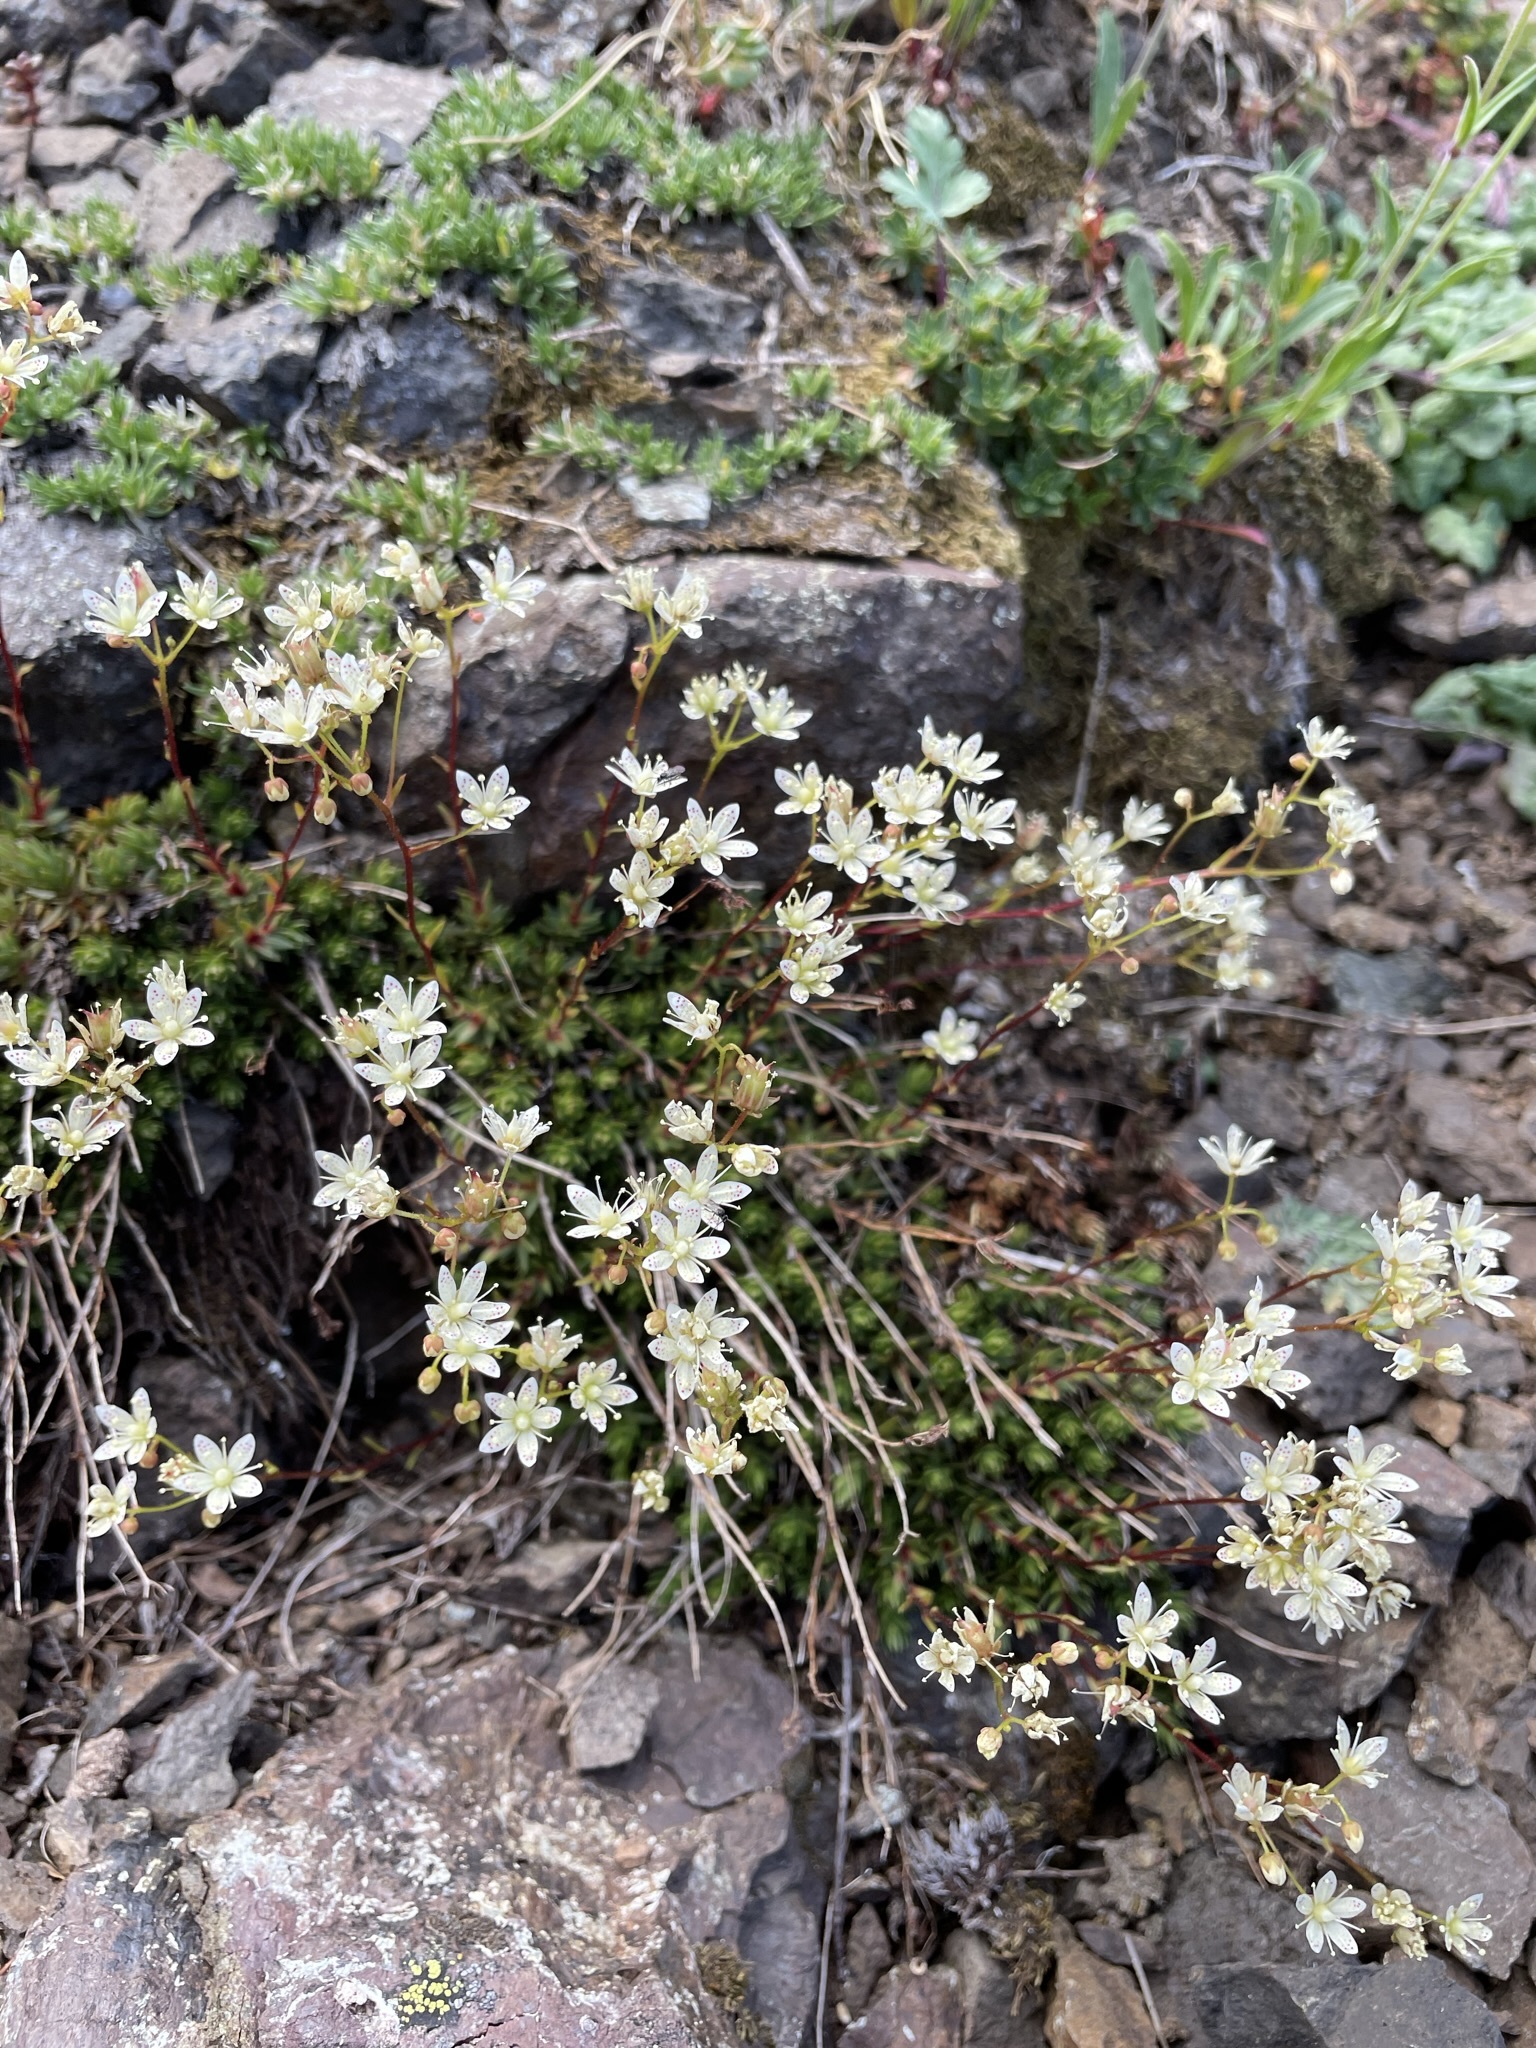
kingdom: Plantae
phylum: Tracheophyta
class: Magnoliopsida
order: Saxifragales
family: Saxifragaceae
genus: Saxifraga
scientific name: Saxifraga bronchialis
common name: Matted saxifrage
